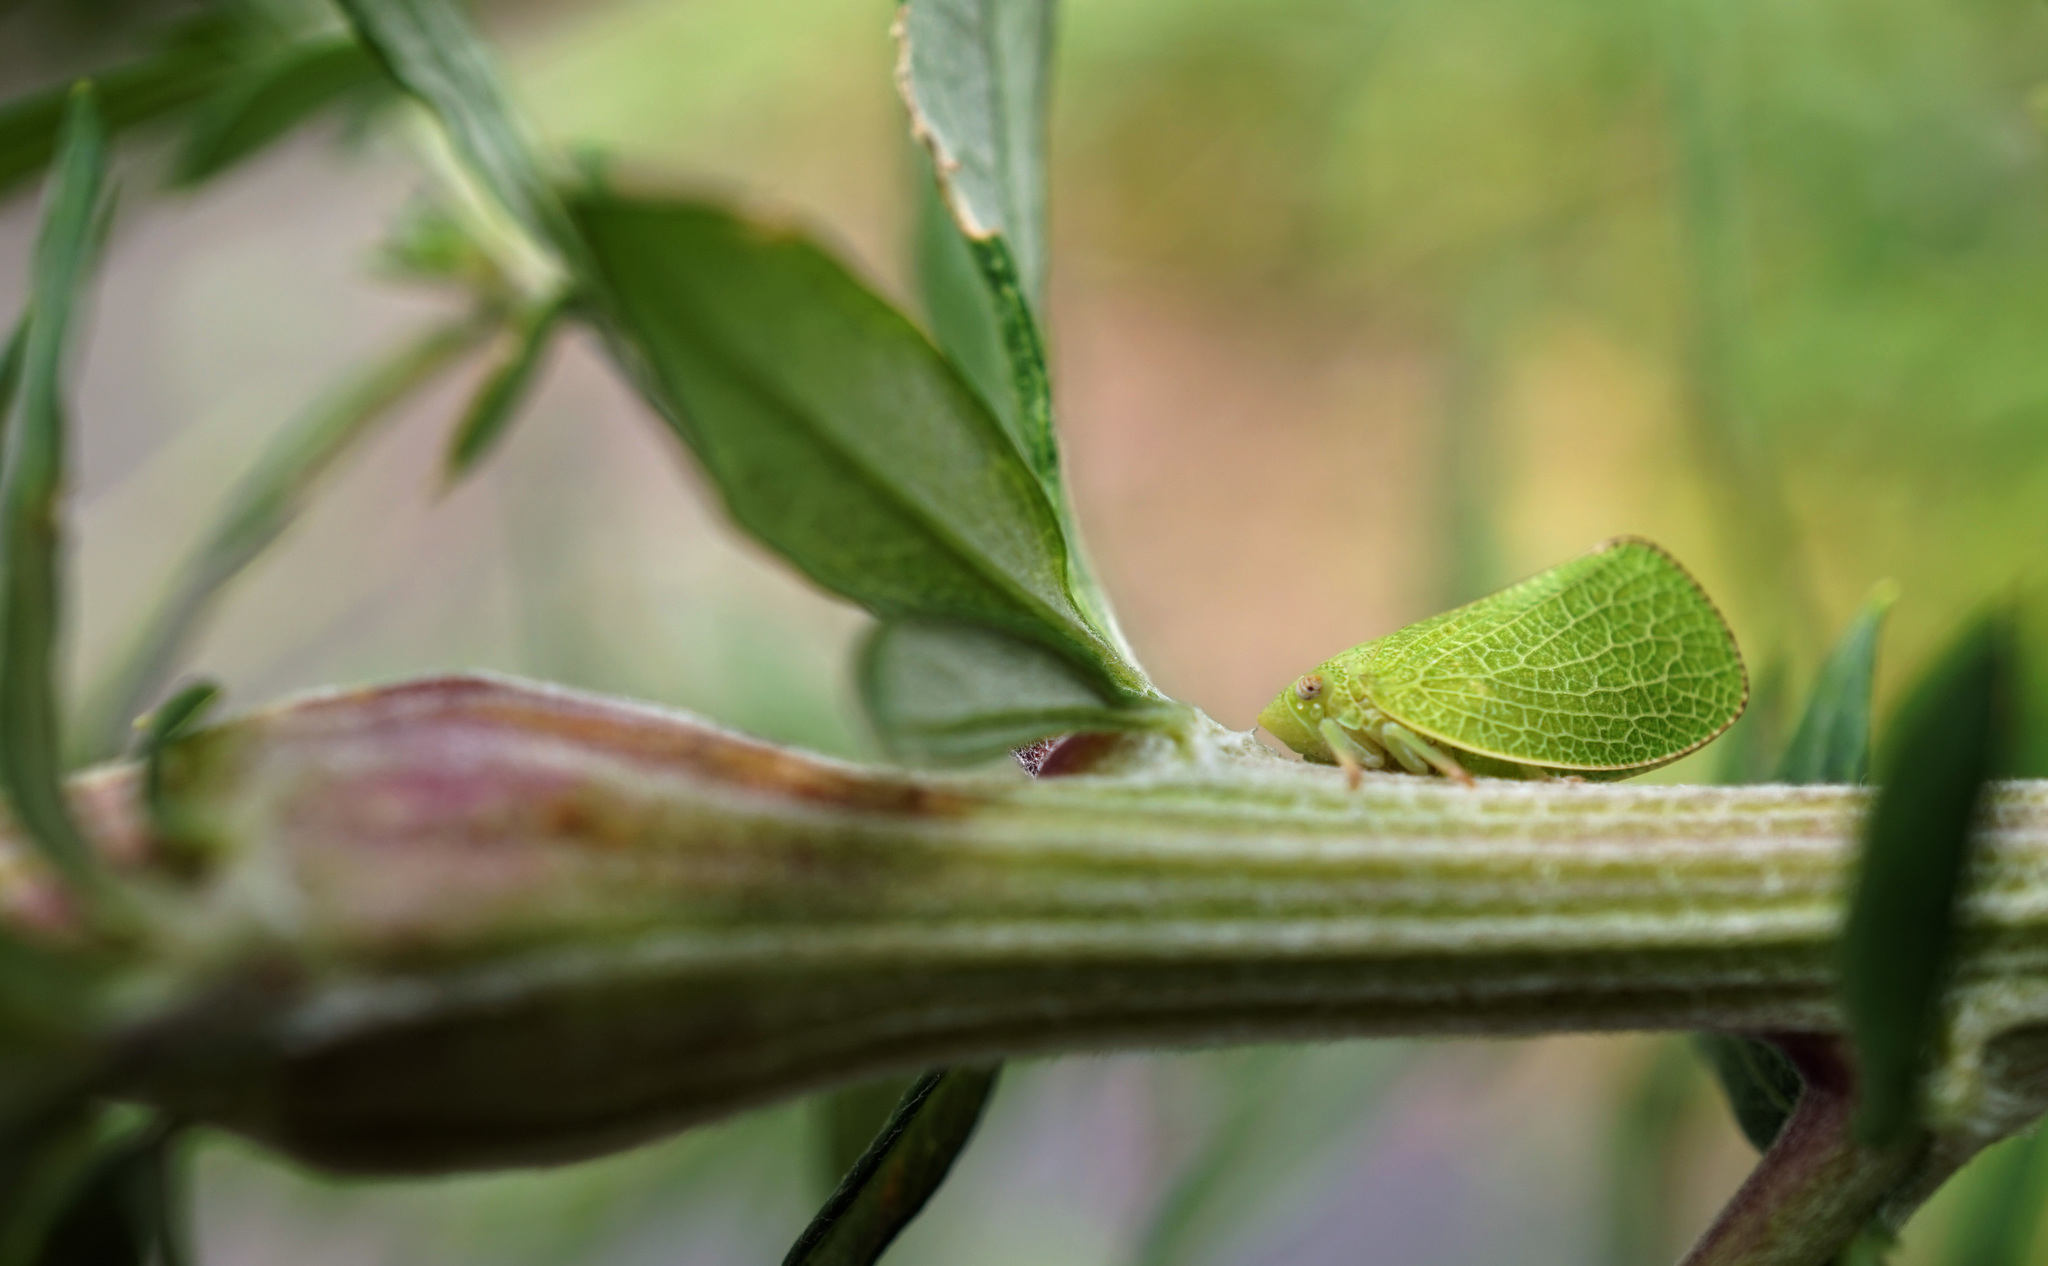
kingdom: Animalia
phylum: Arthropoda
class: Insecta
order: Hemiptera
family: Acanaloniidae
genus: Acanalonia
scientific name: Acanalonia conica
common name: Green cone-headed planthopper
